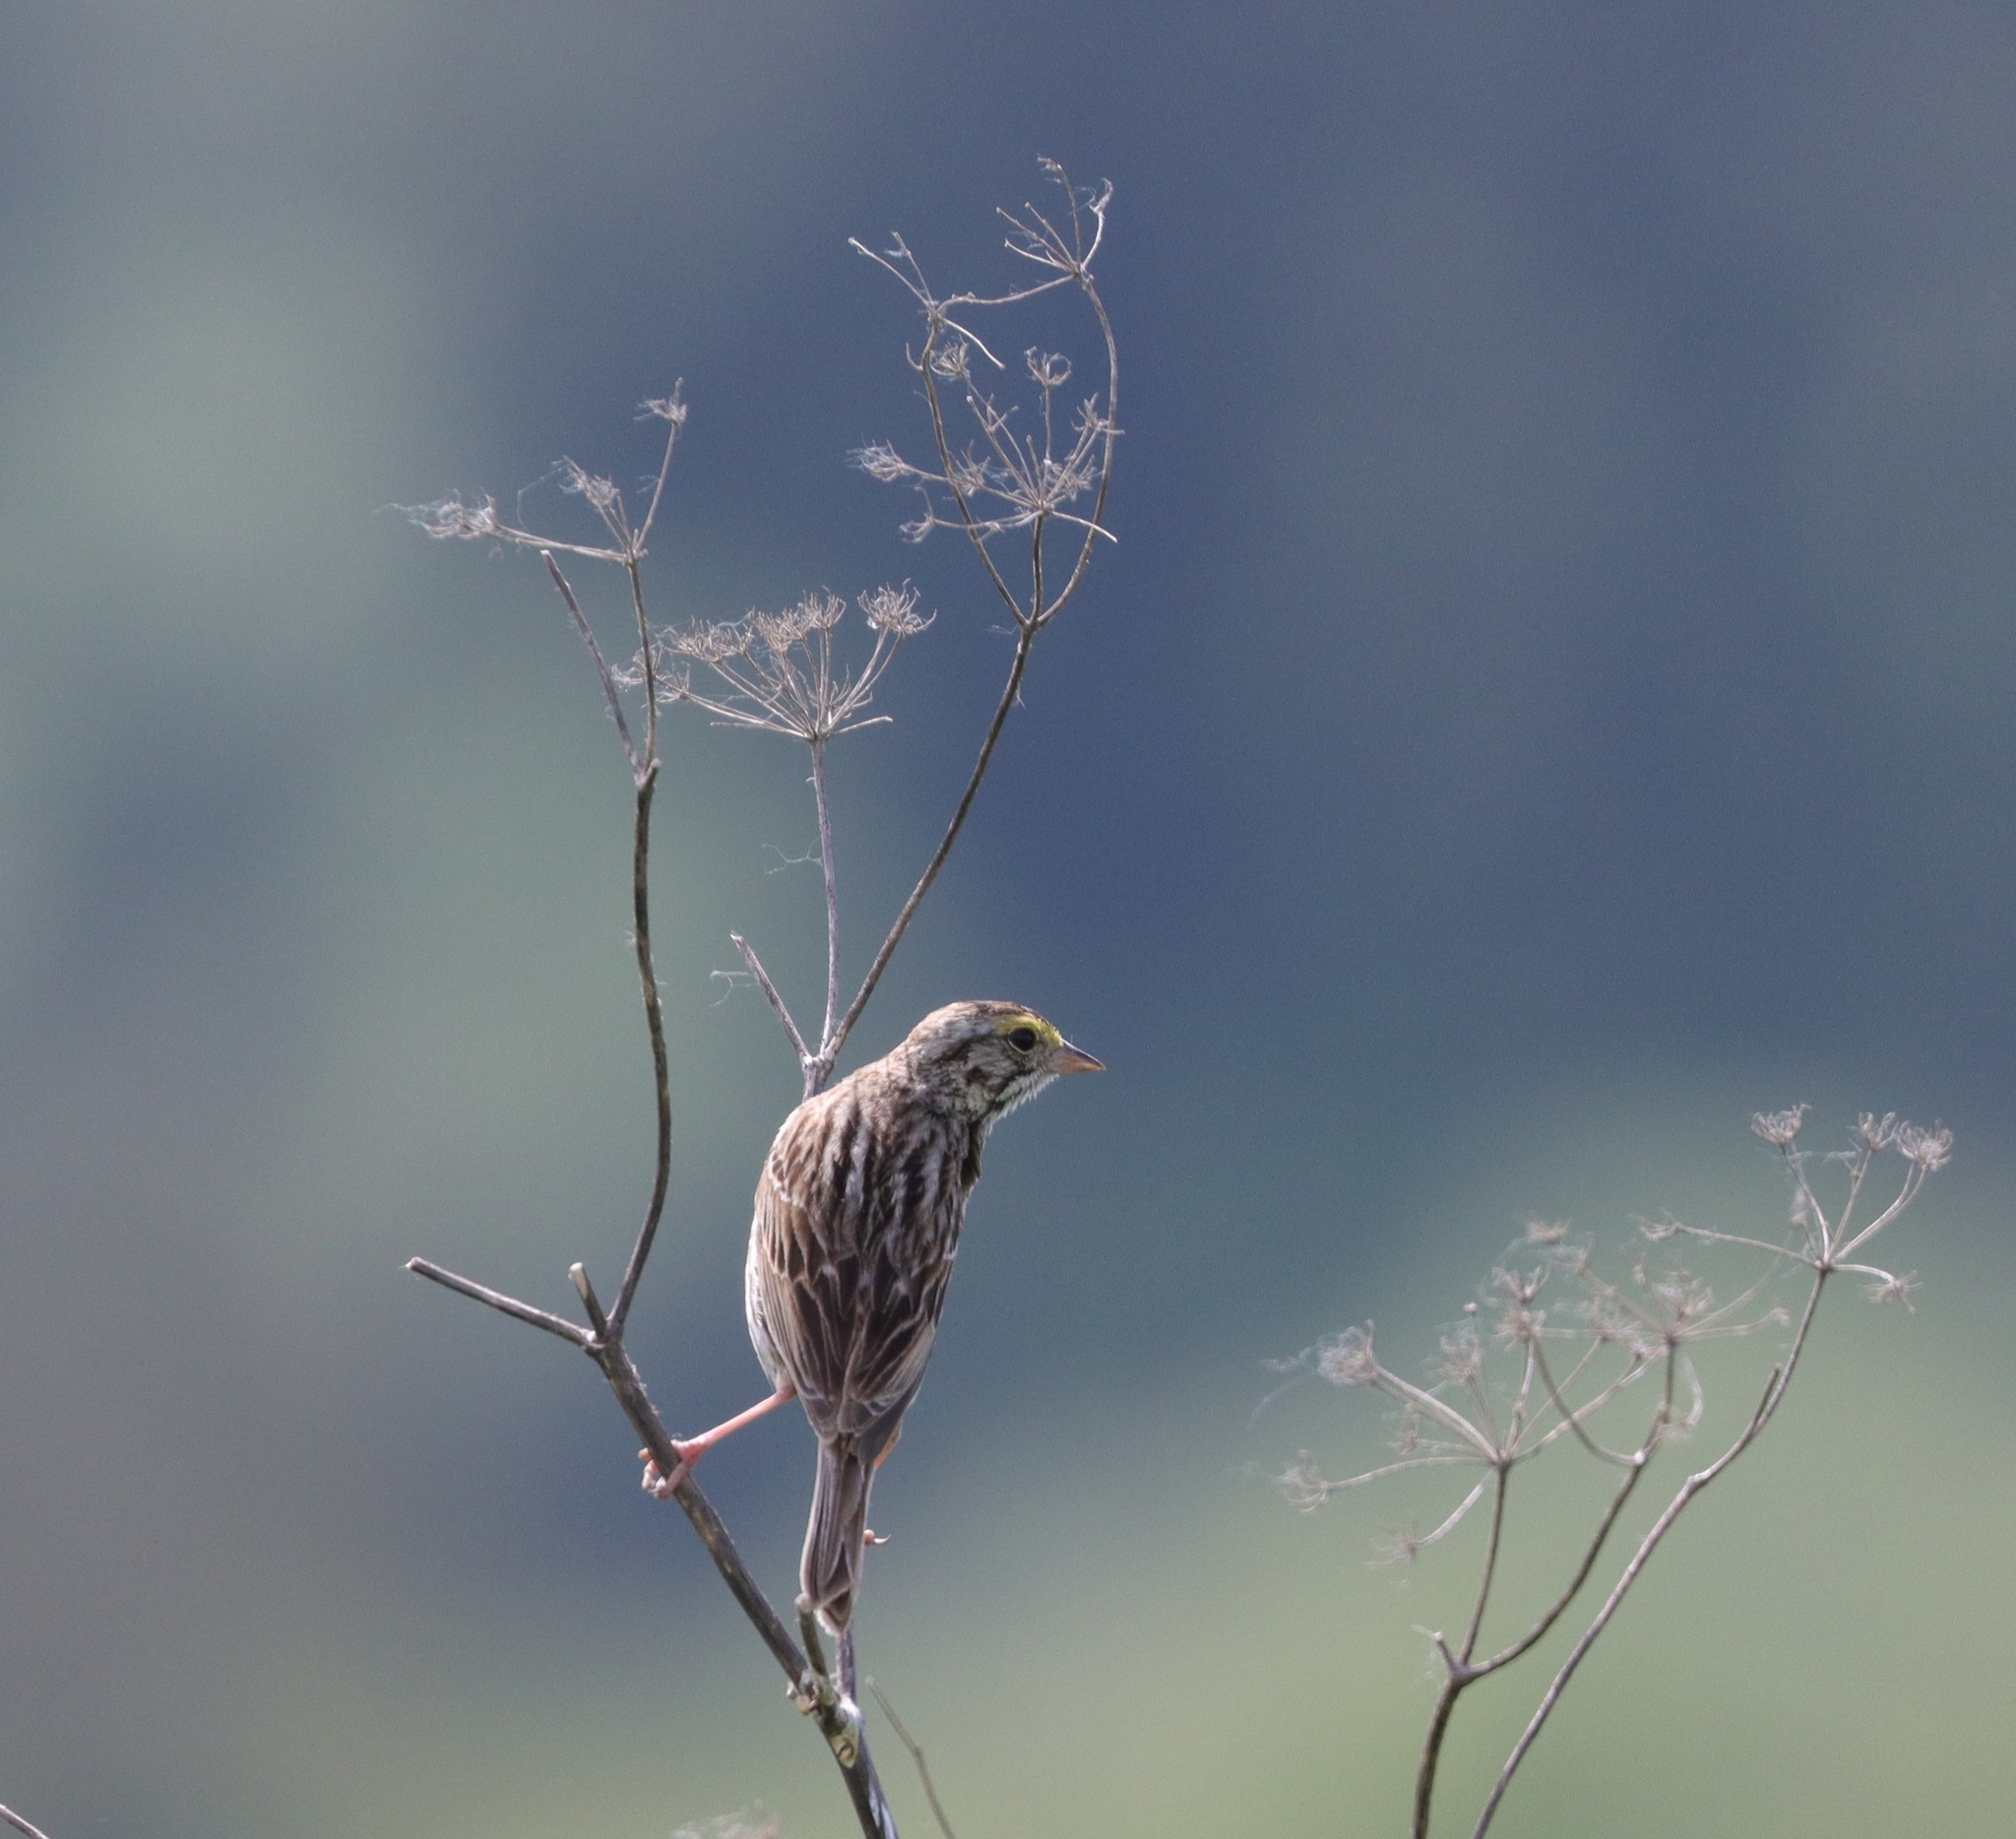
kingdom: Animalia
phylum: Chordata
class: Aves
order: Passeriformes
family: Passerellidae
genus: Passerculus
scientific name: Passerculus sandwichensis
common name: Savannah sparrow
